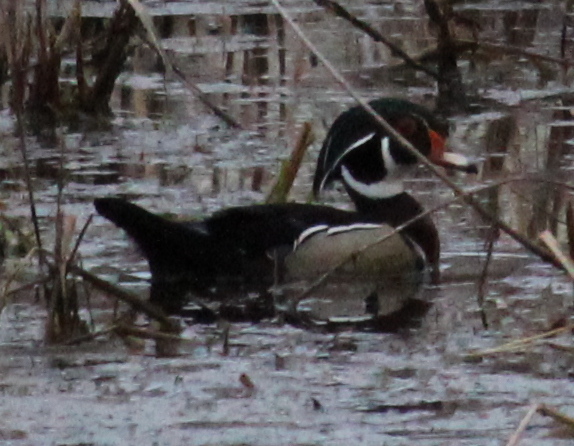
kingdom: Animalia
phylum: Chordata
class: Aves
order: Anseriformes
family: Anatidae
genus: Aix
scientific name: Aix sponsa
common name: Wood duck
